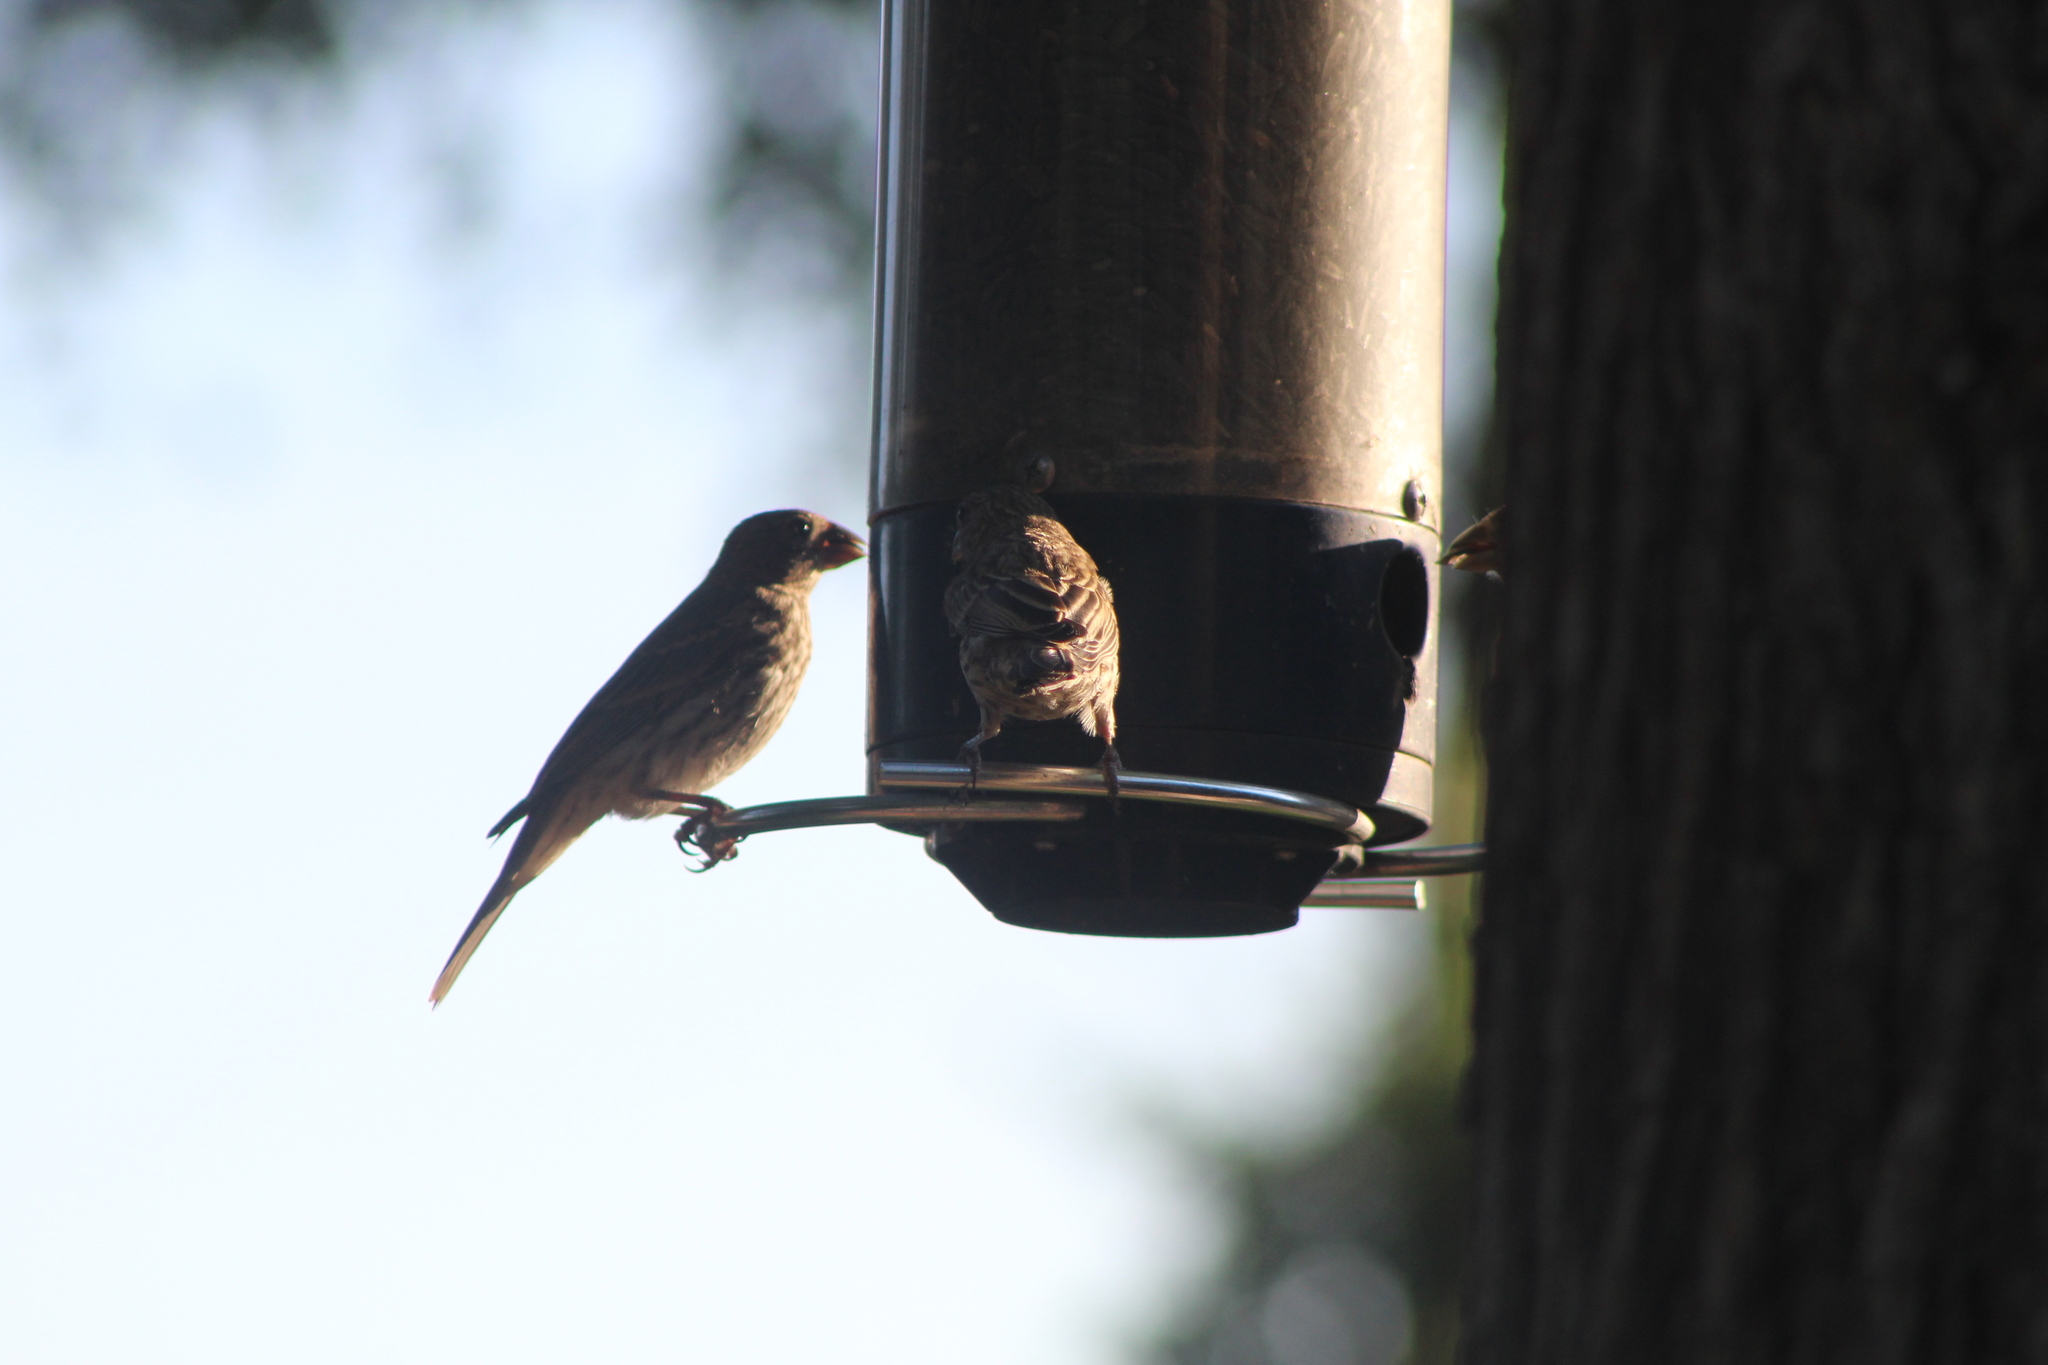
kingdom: Animalia
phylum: Chordata
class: Aves
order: Passeriformes
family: Fringillidae
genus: Haemorhous
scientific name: Haemorhous mexicanus
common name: House finch
